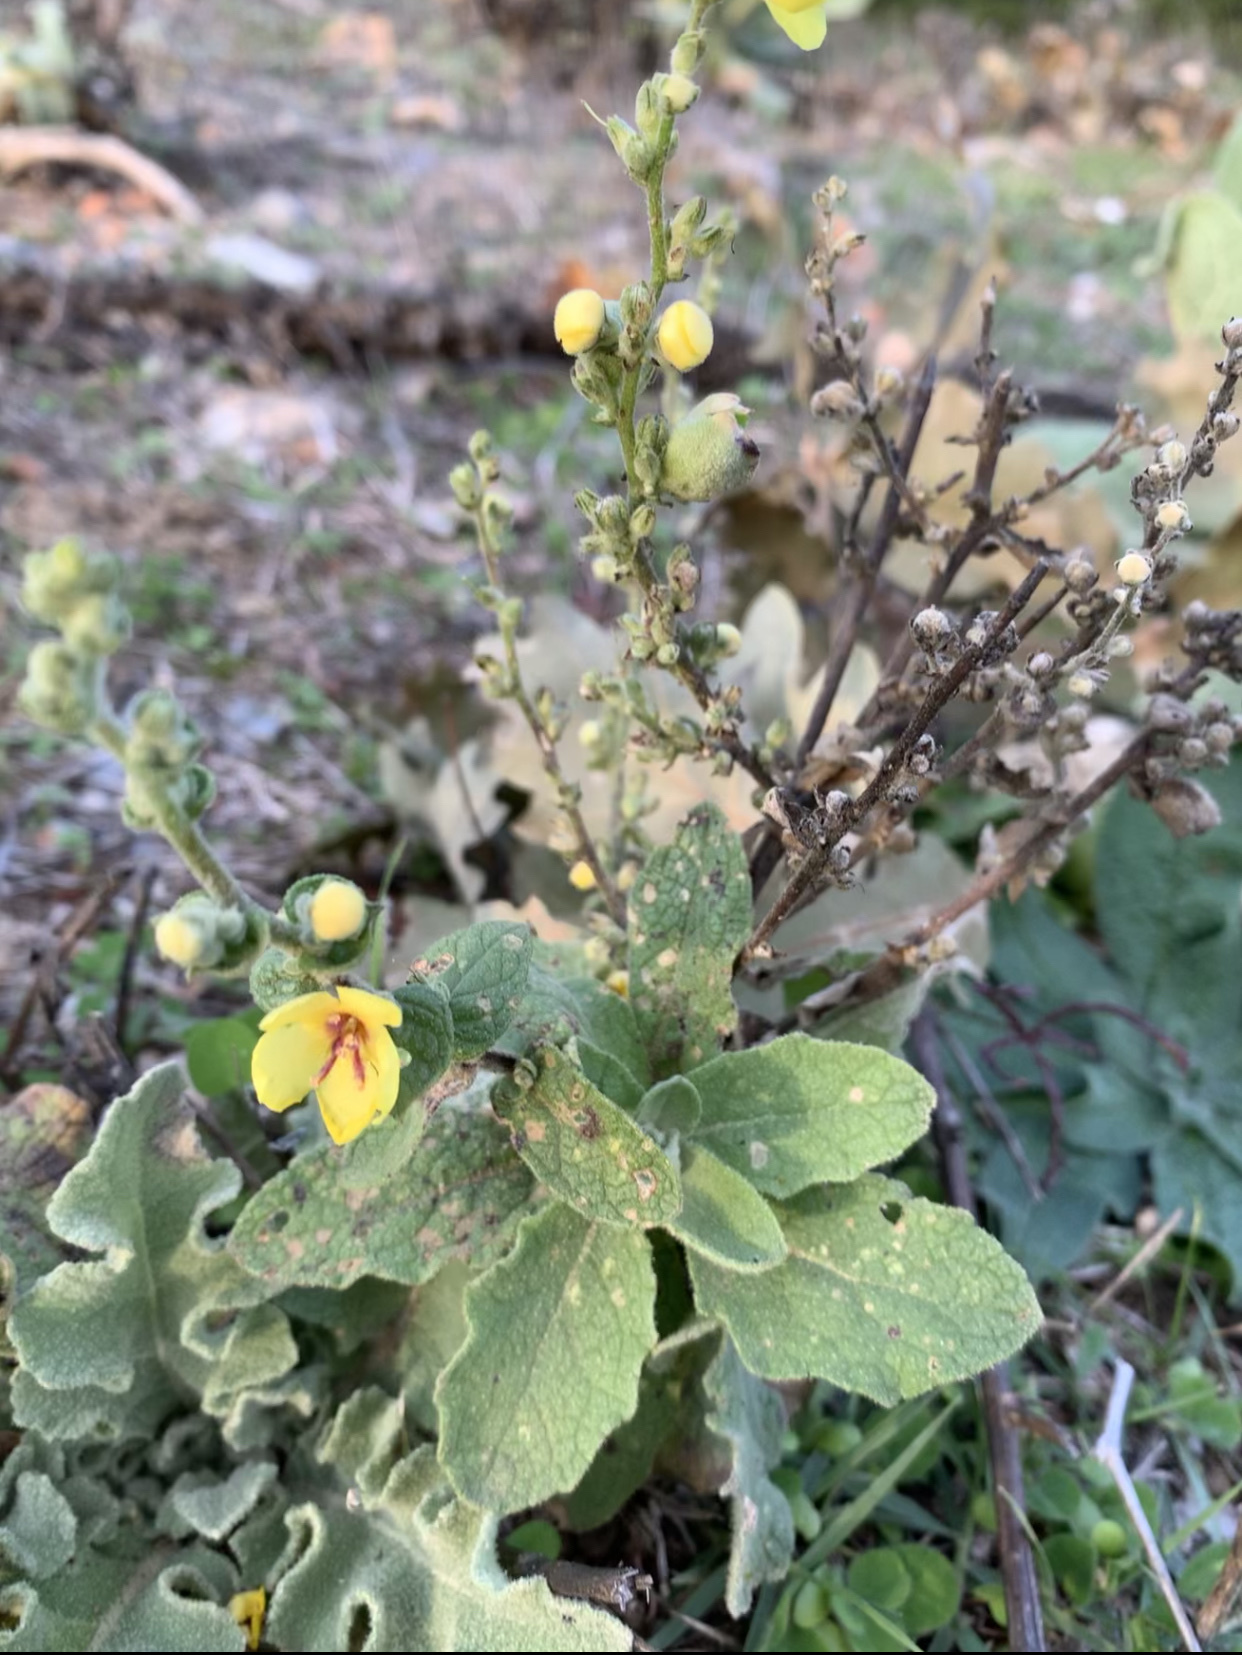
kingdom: Plantae
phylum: Tracheophyta
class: Magnoliopsida
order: Lamiales
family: Scrophulariaceae
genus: Verbascum
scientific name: Verbascum sinuatum
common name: Wavyleaf mullein
